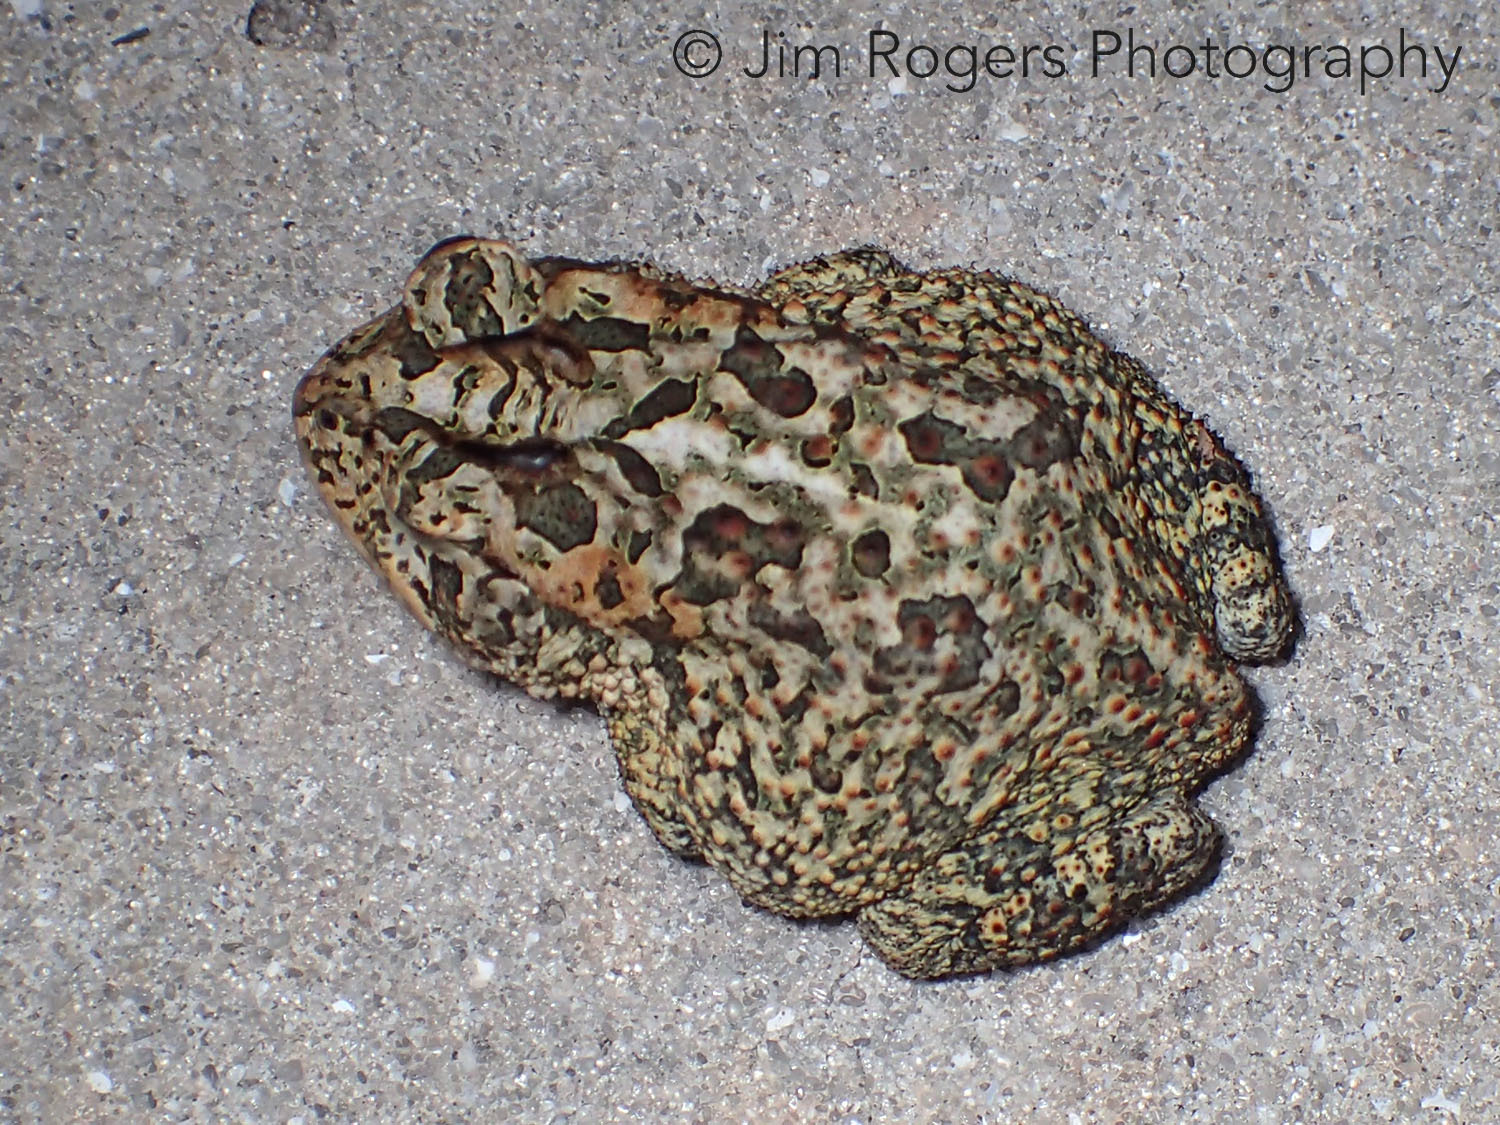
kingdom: Animalia
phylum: Chordata
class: Amphibia
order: Anura
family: Bufonidae
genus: Anaxyrus
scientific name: Anaxyrus terrestris
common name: Southern toad
